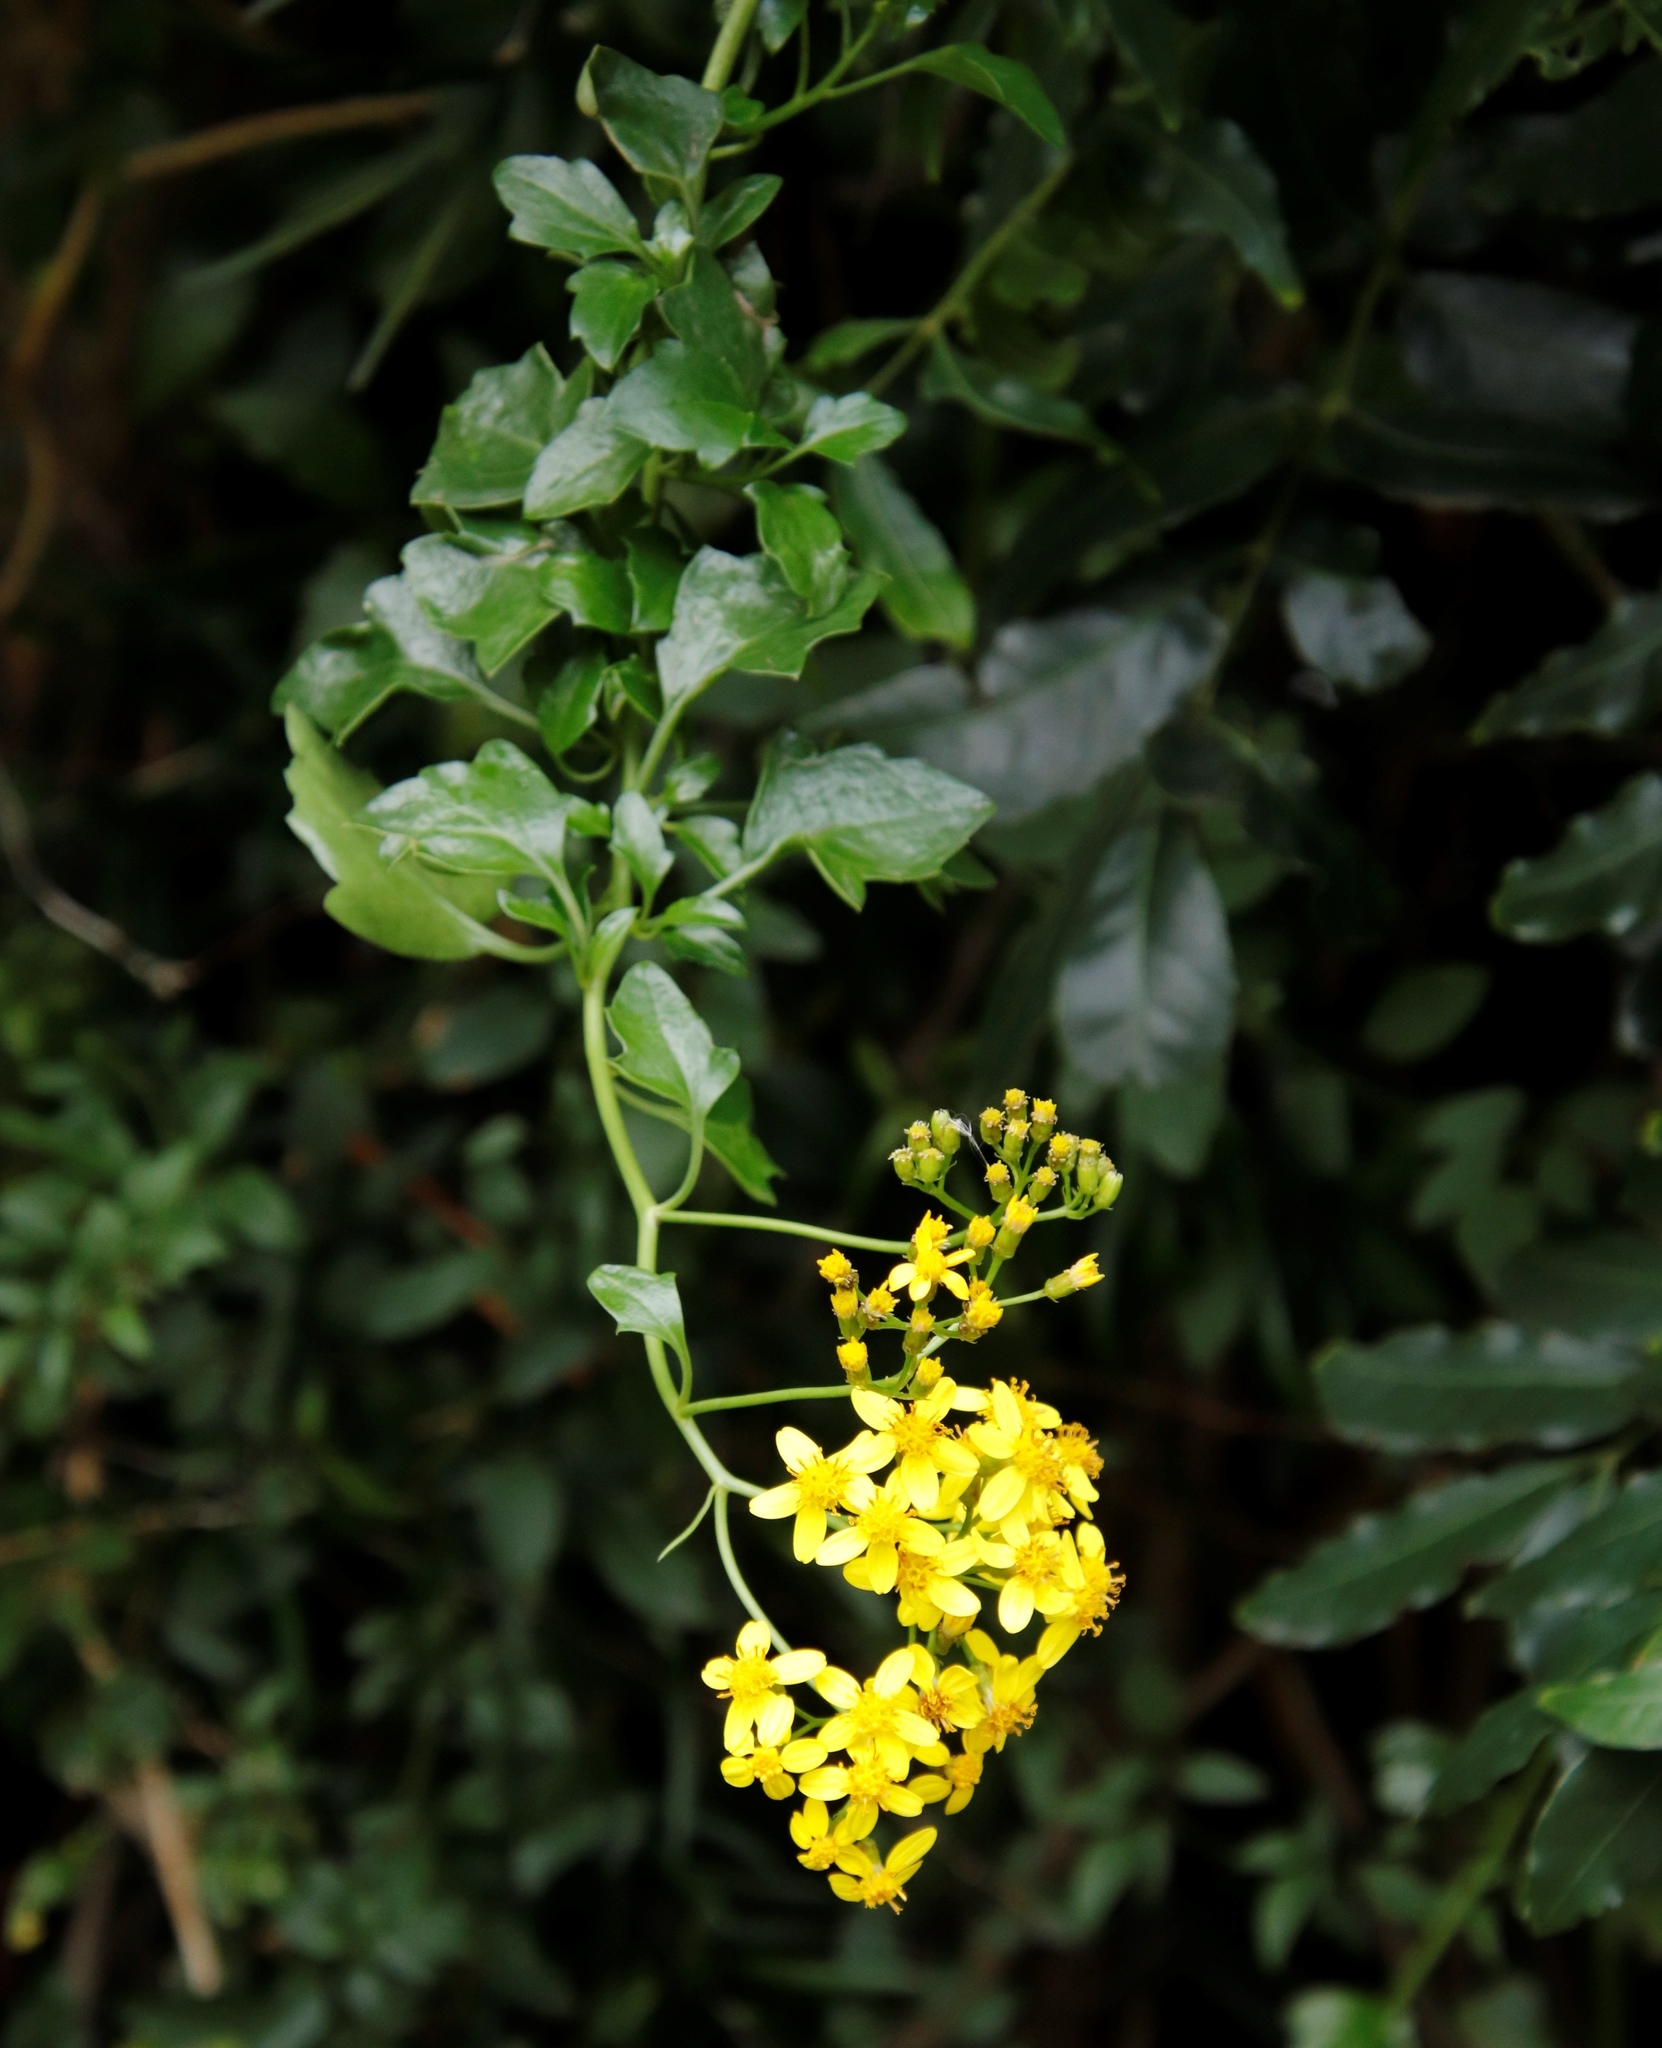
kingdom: Plantae
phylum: Tracheophyta
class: Magnoliopsida
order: Asterales
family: Asteraceae
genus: Senecio
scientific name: Senecio angulatus
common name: Climbing groundsel
